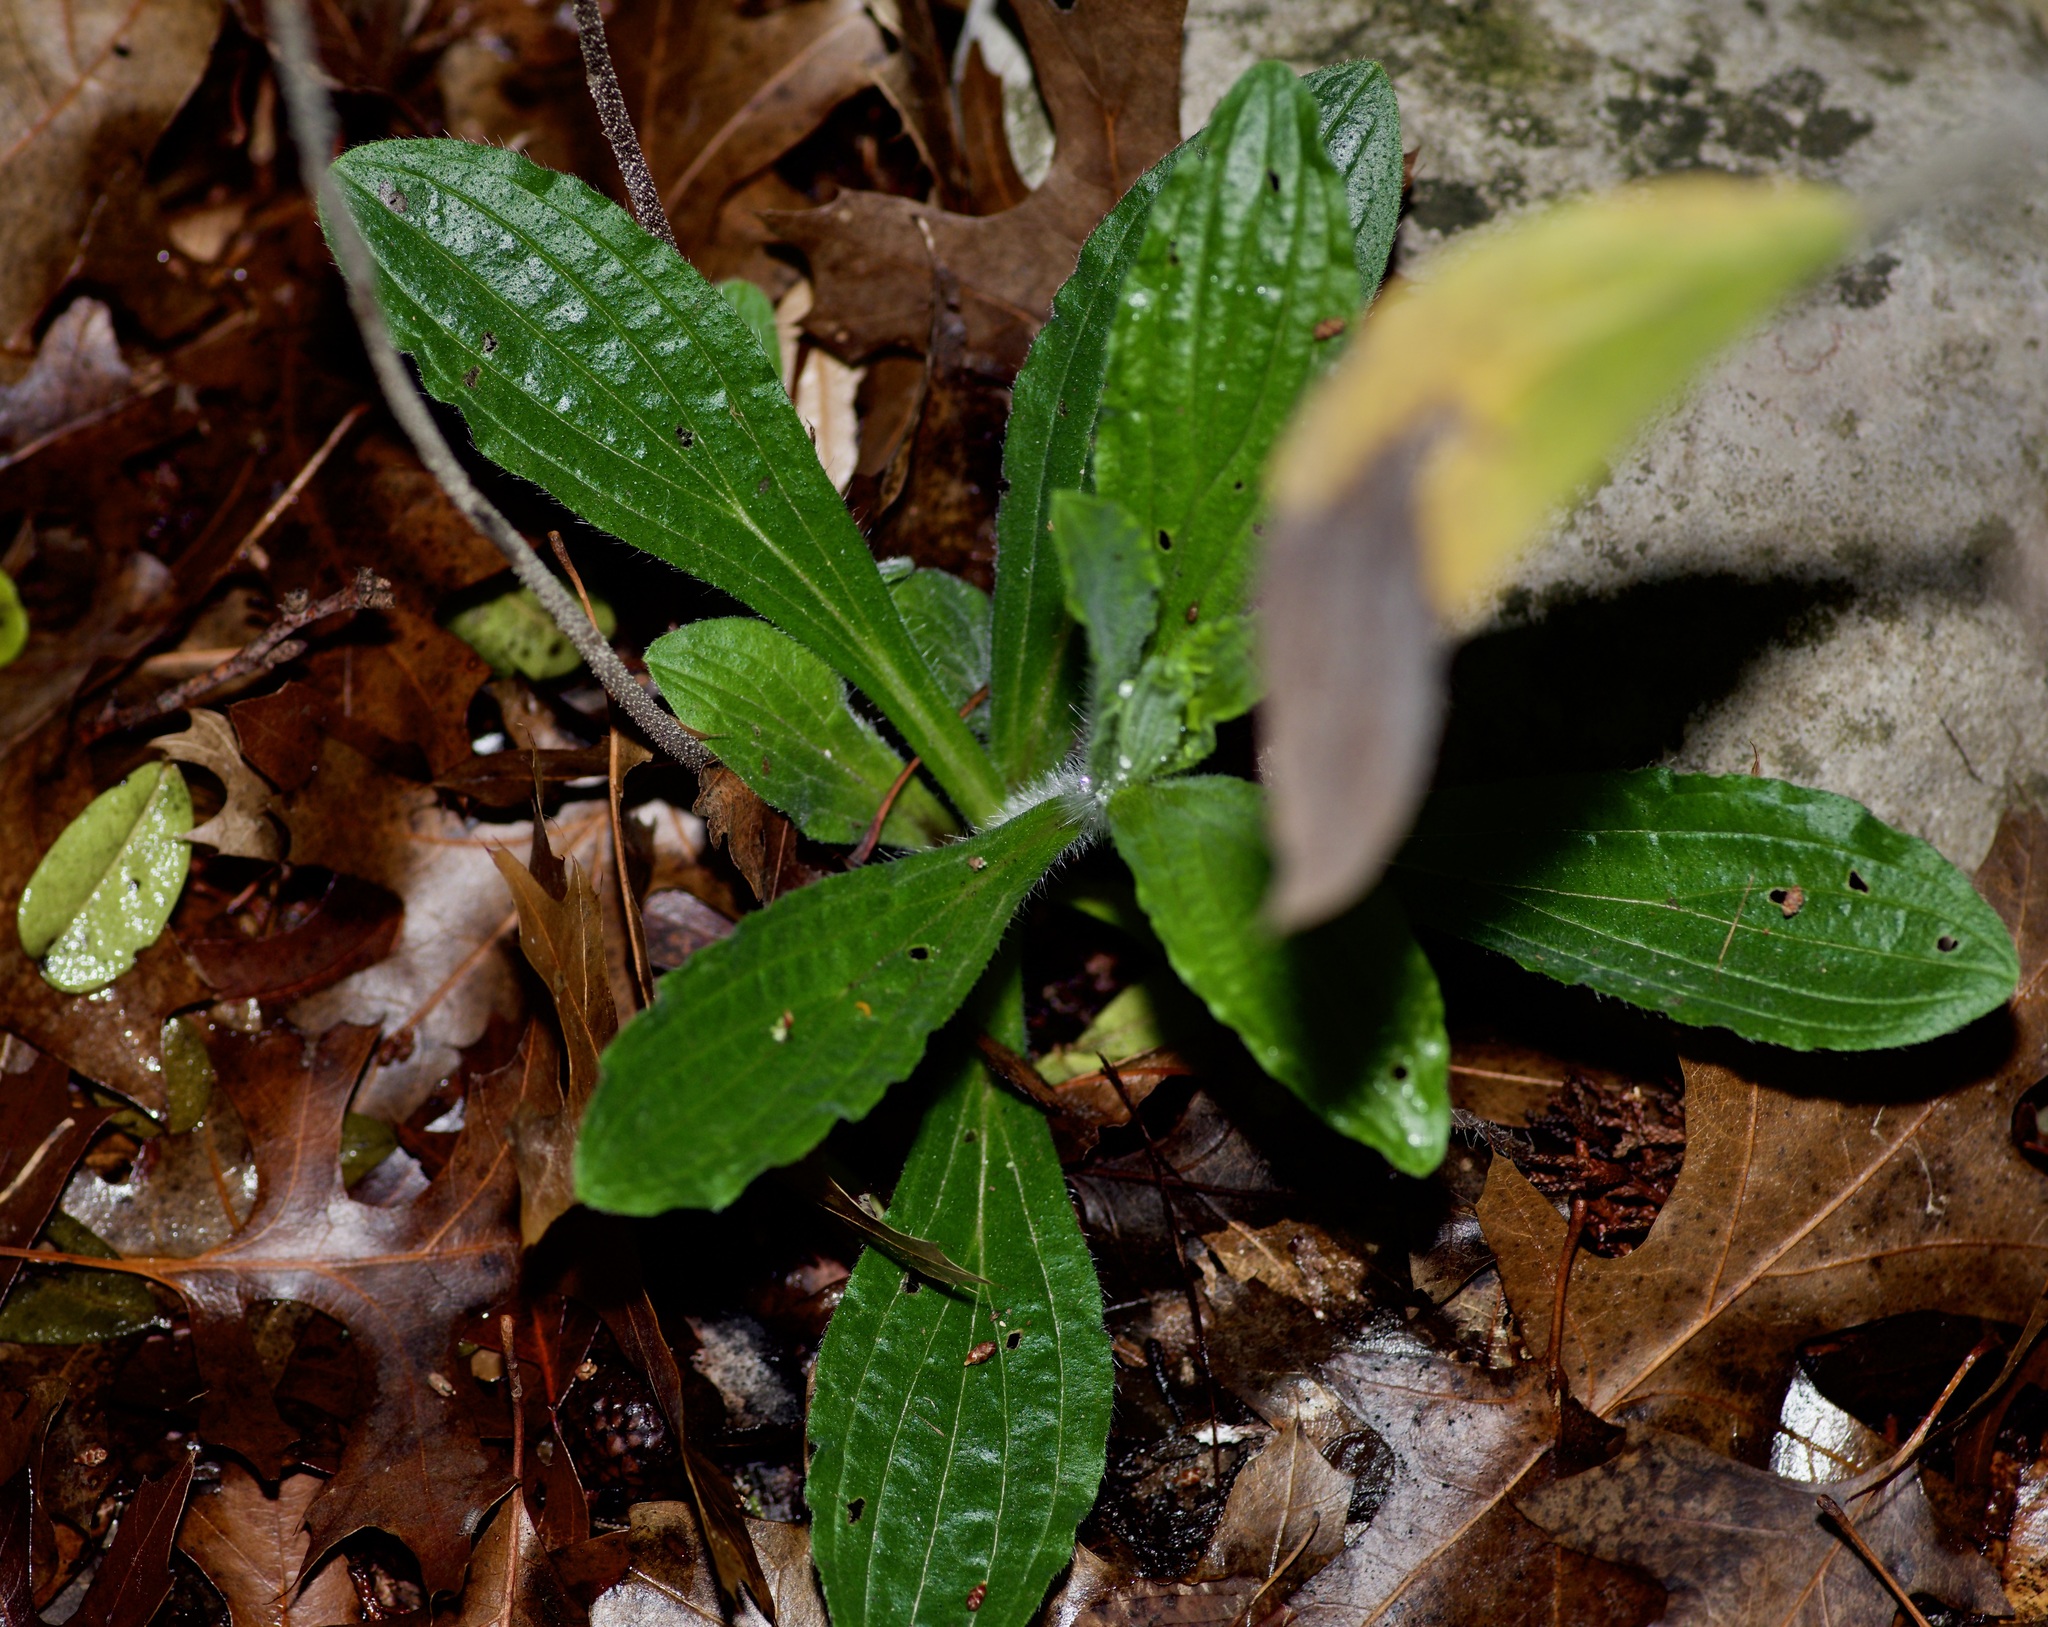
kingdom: Plantae
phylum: Tracheophyta
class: Magnoliopsida
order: Boraginales
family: Boraginaceae
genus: Lithospermum
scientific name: Lithospermum caroliniense
